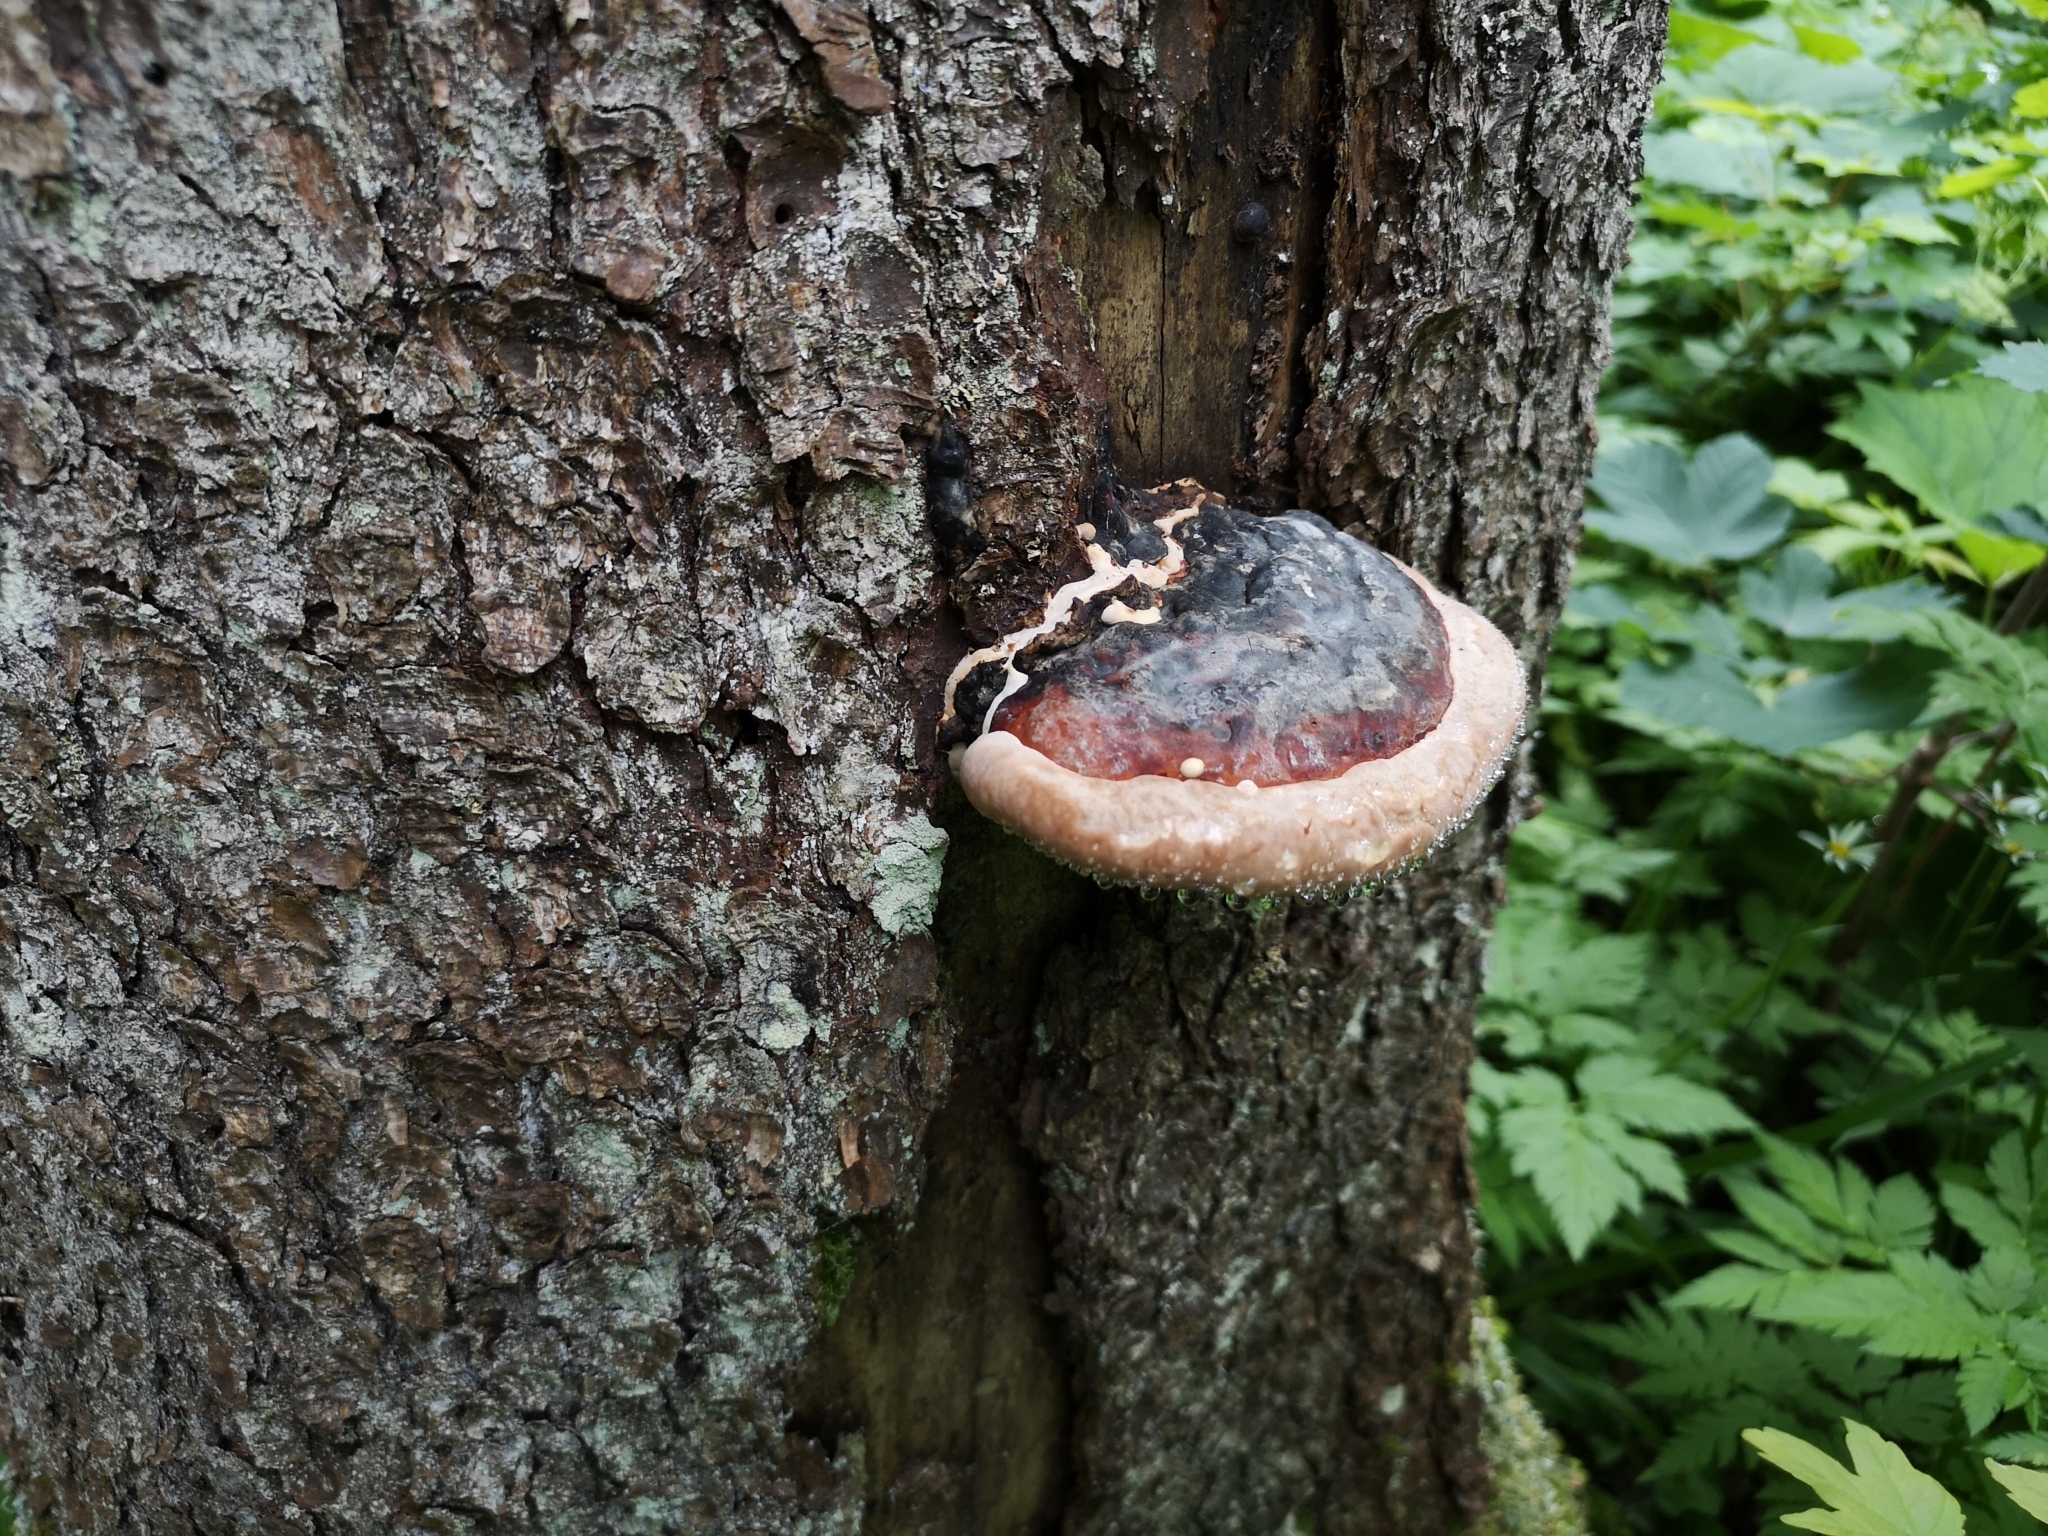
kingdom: Fungi
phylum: Basidiomycota
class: Agaricomycetes
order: Polyporales
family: Fomitopsidaceae
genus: Fomitopsis
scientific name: Fomitopsis pinicola
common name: Red-belted bracket
